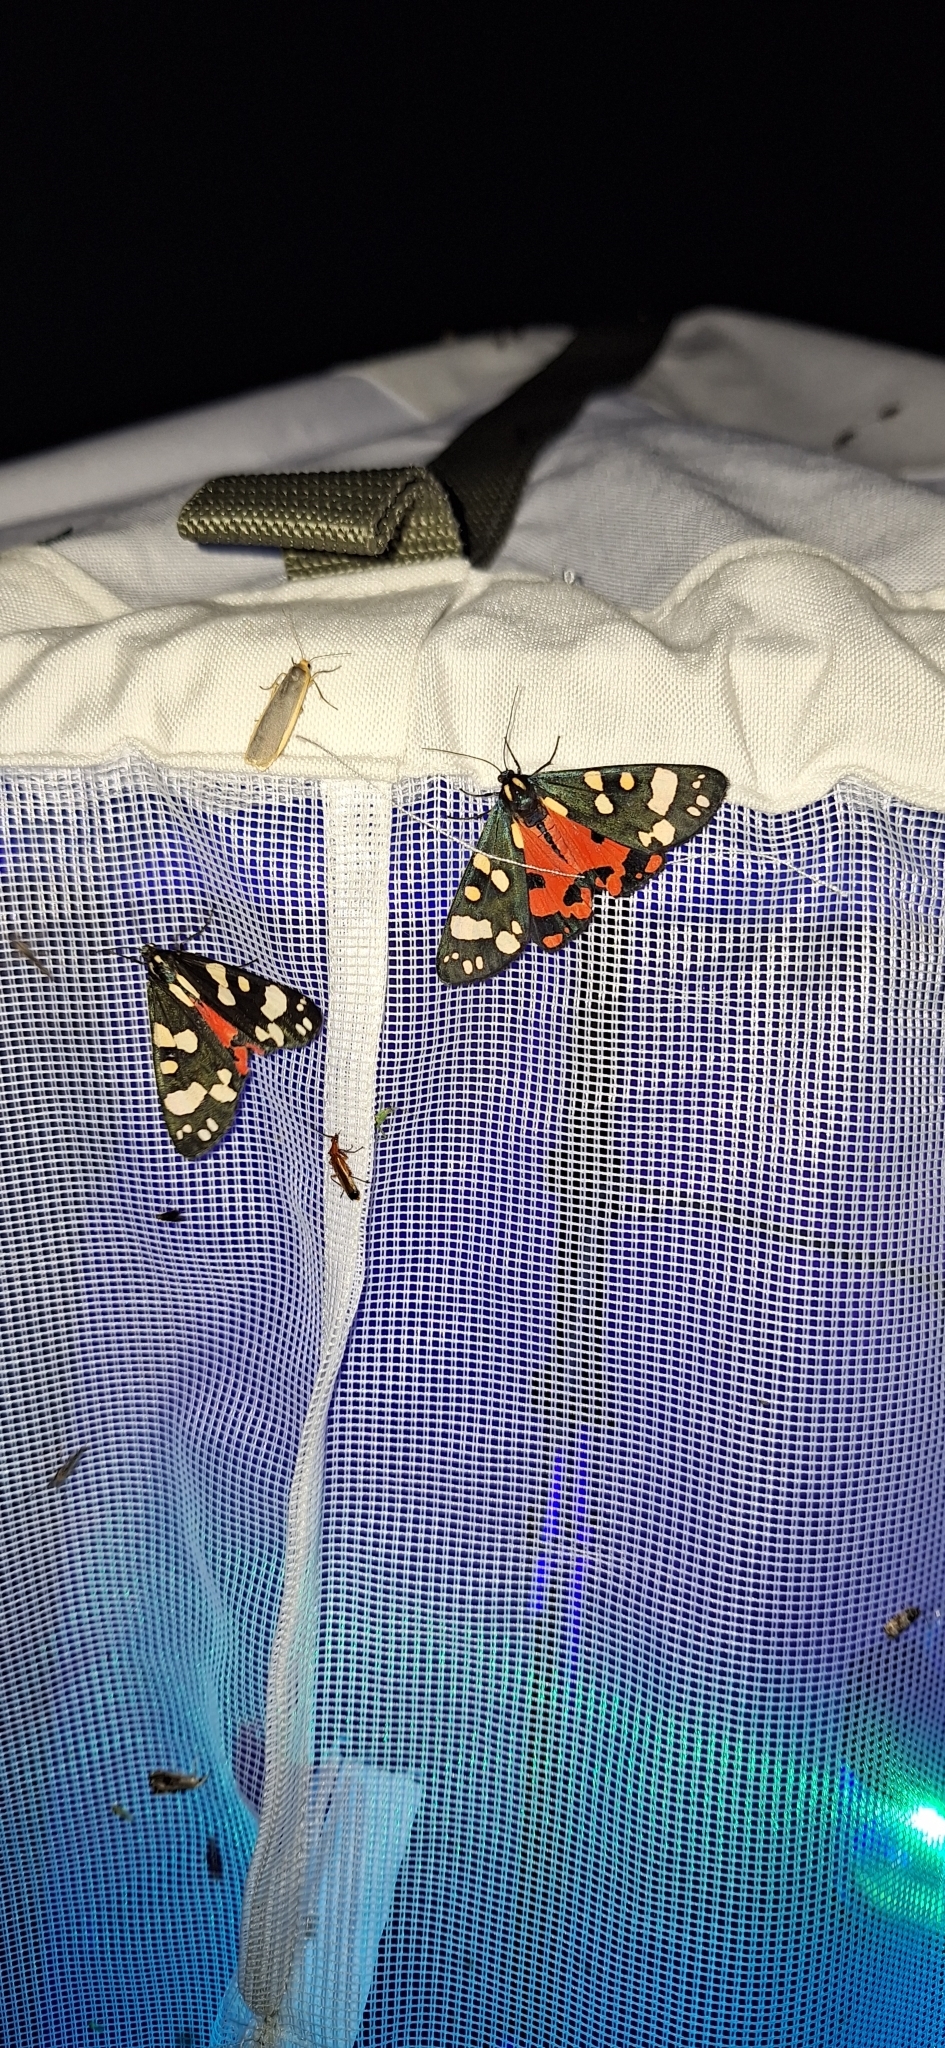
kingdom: Animalia
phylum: Arthropoda
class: Insecta
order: Lepidoptera
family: Erebidae
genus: Callimorpha
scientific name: Callimorpha dominula
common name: Scarlet tiger
